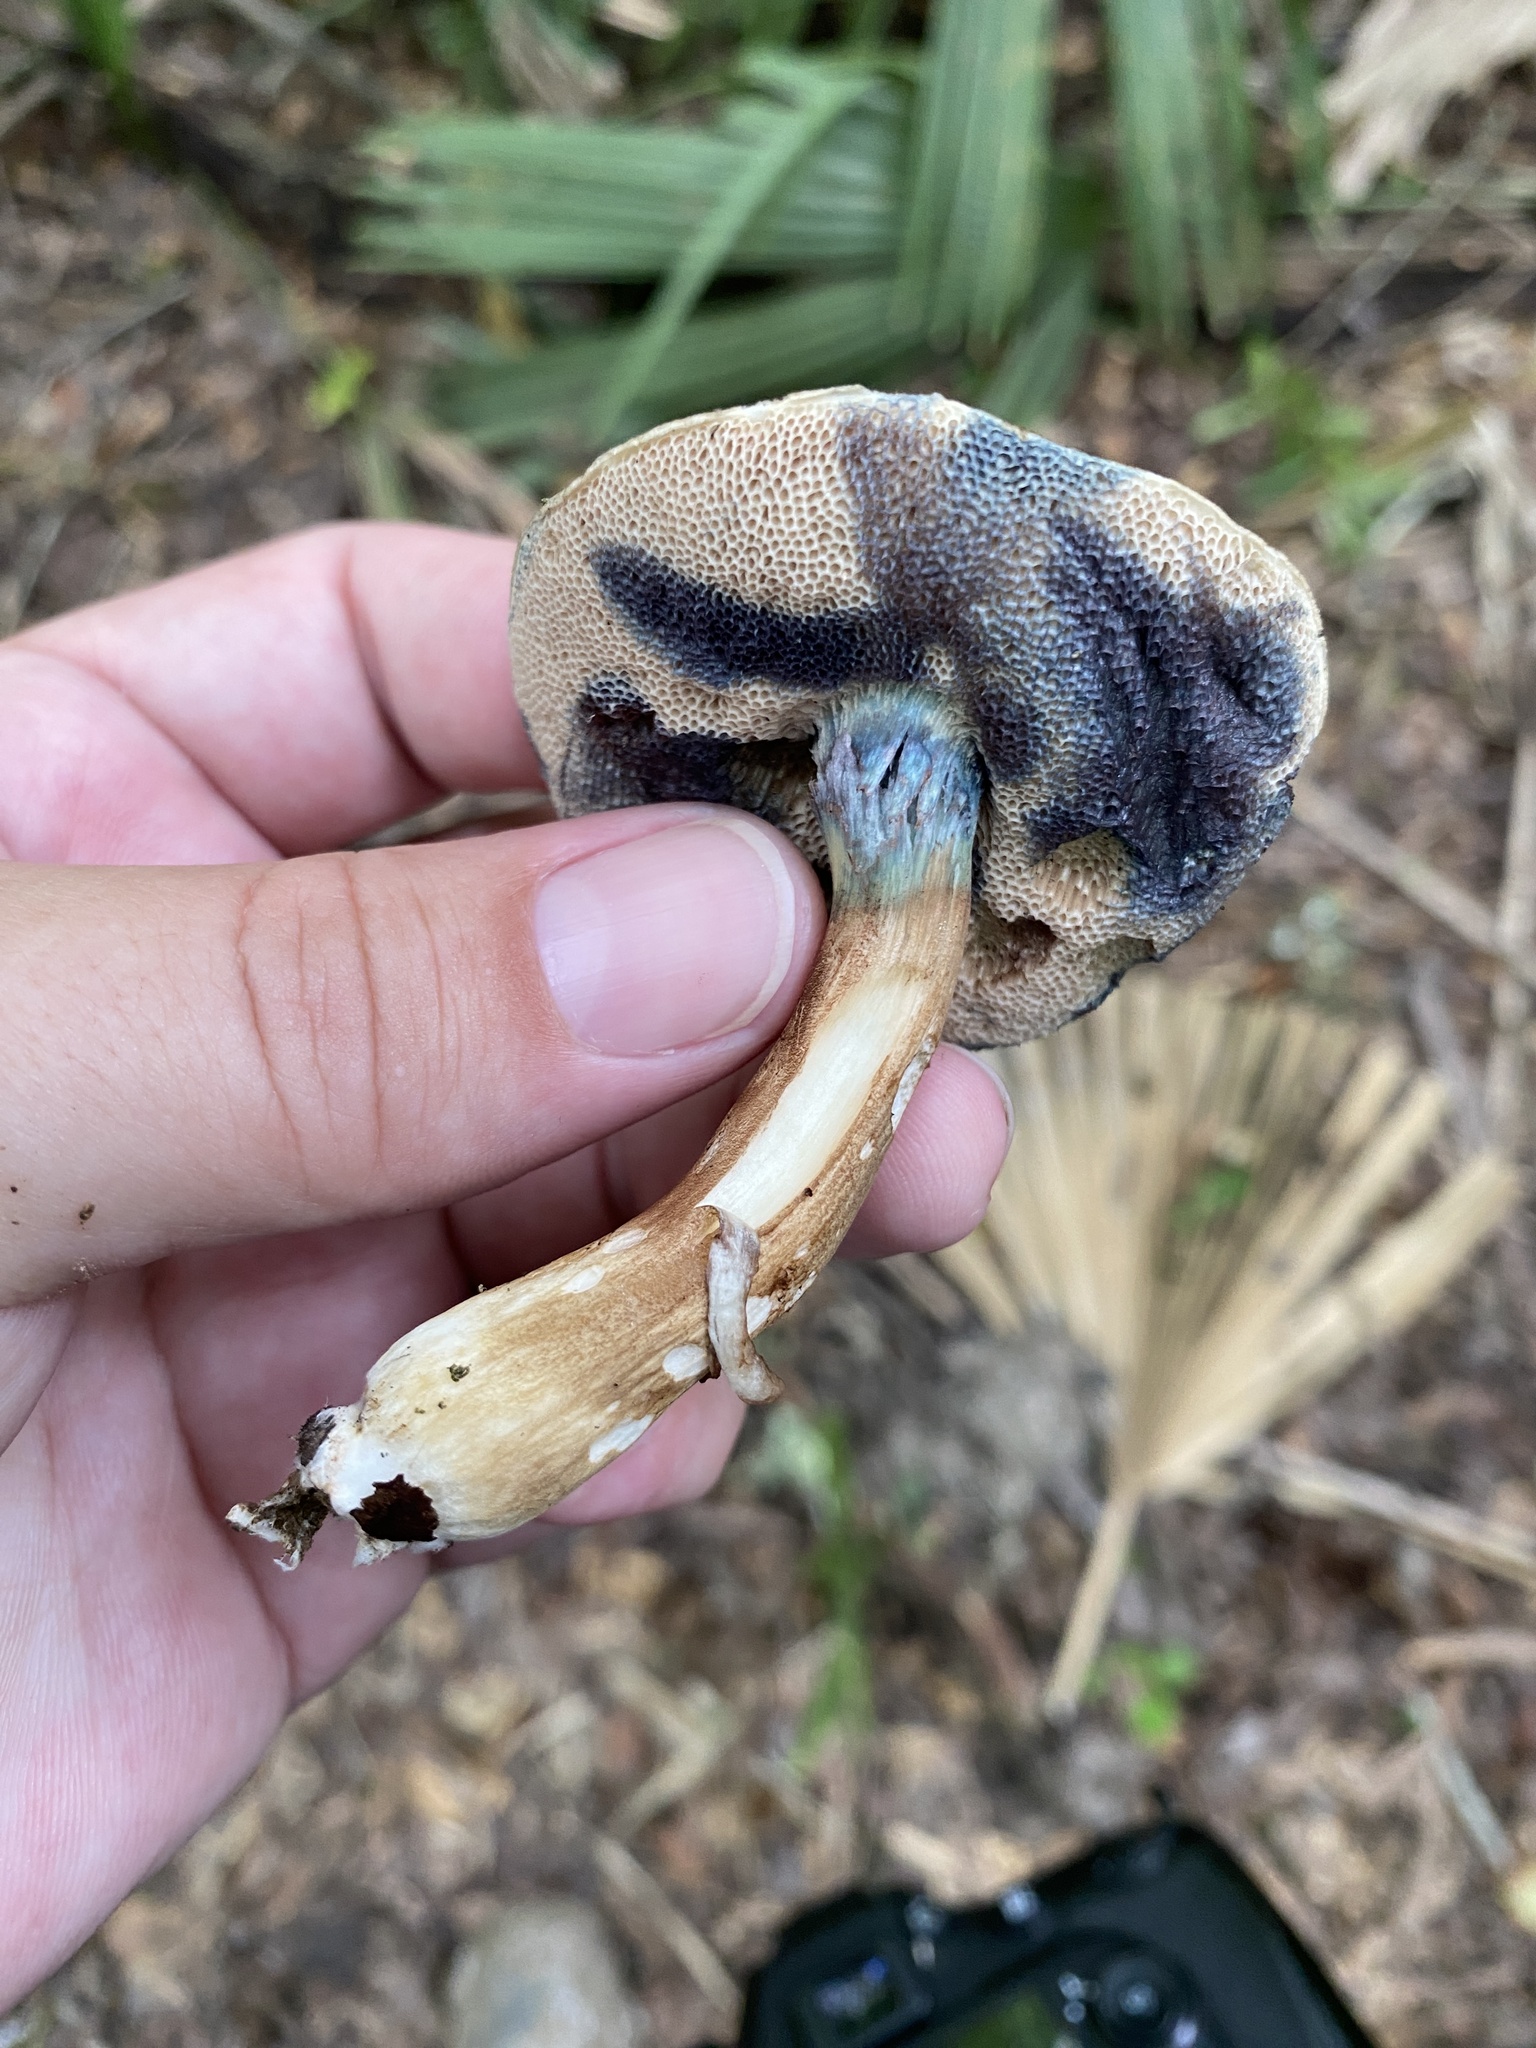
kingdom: Fungi
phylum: Basidiomycota
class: Agaricomycetes
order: Boletales
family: Boletaceae
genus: Porphyrellus
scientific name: Porphyrellus sordidus
